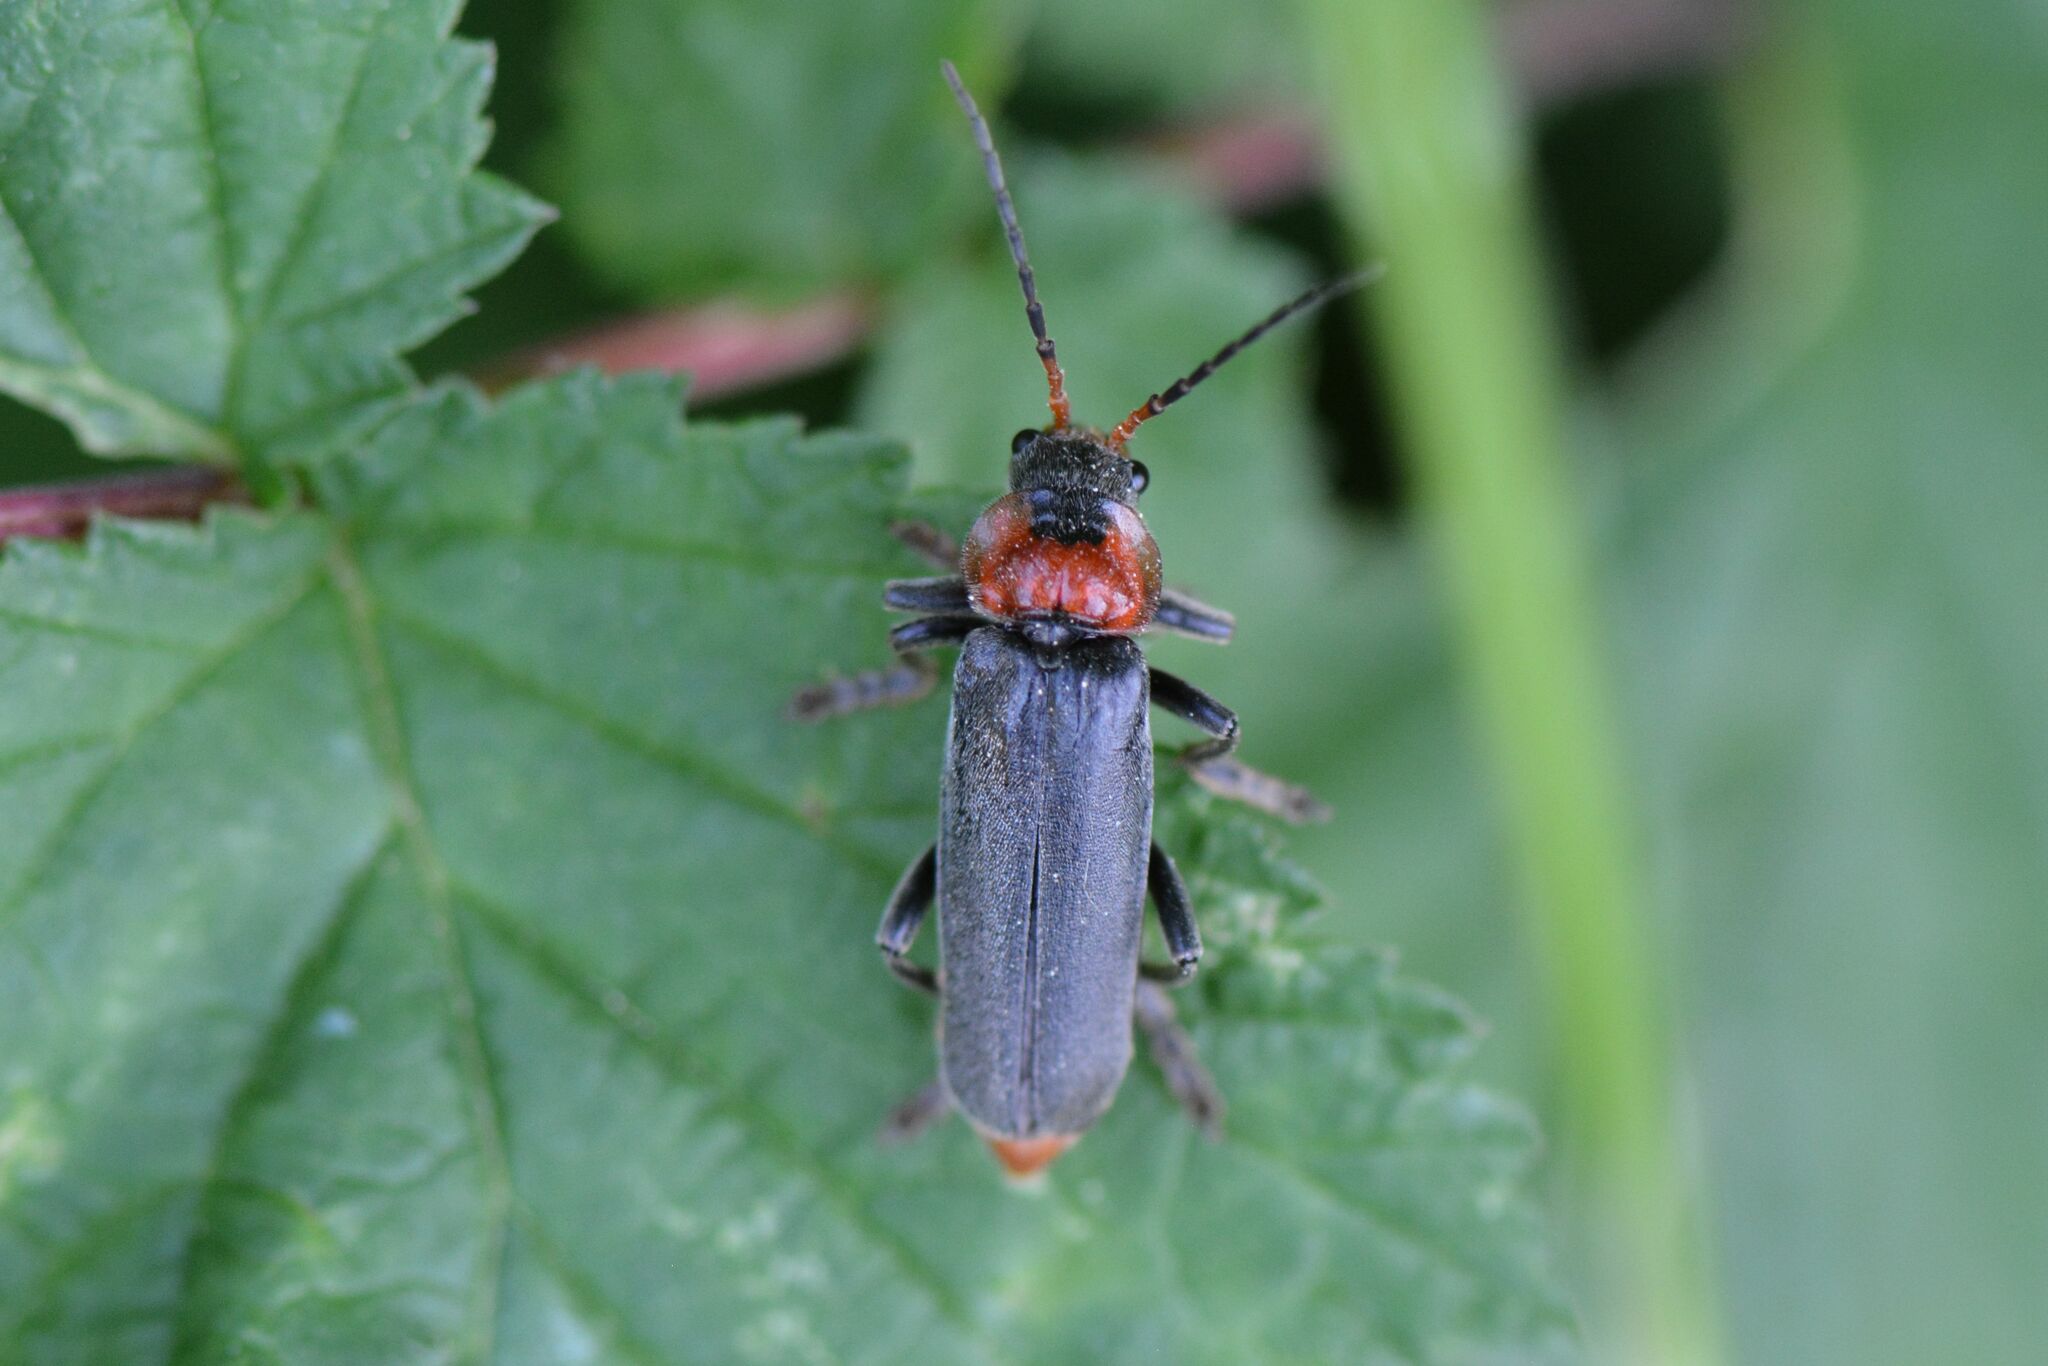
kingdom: Animalia
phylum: Arthropoda
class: Insecta
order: Coleoptera
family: Cantharidae
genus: Cantharis
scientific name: Cantharis fusca
